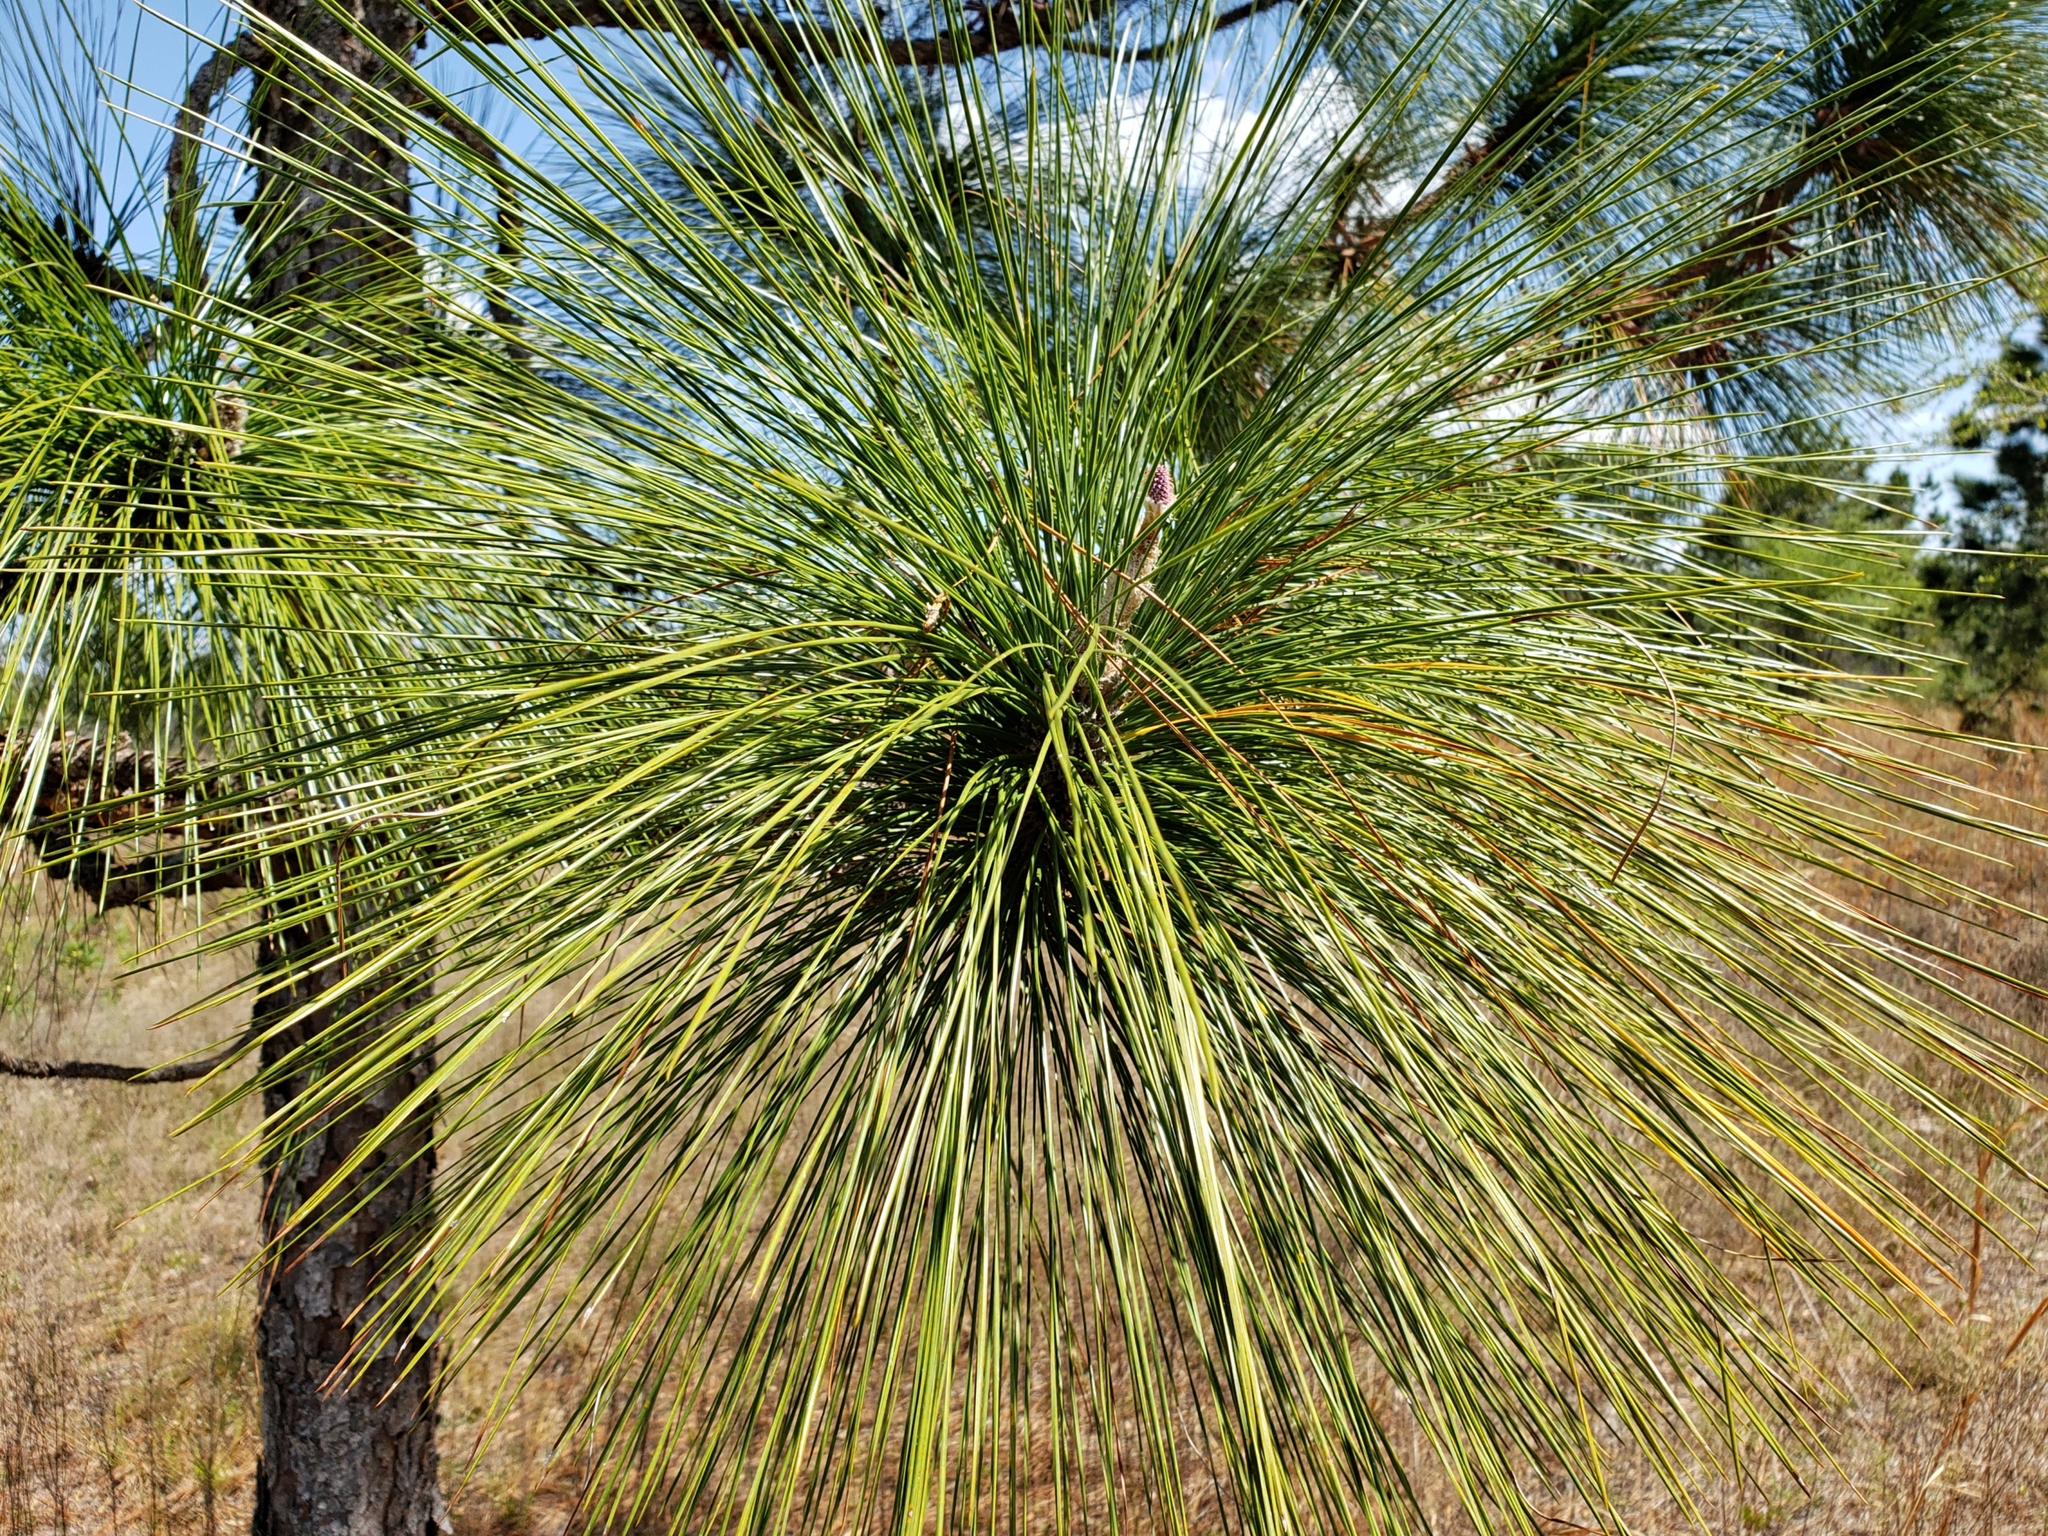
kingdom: Plantae
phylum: Tracheophyta
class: Pinopsida
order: Pinales
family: Pinaceae
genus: Pinus
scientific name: Pinus palustris
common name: Longleaf pine
